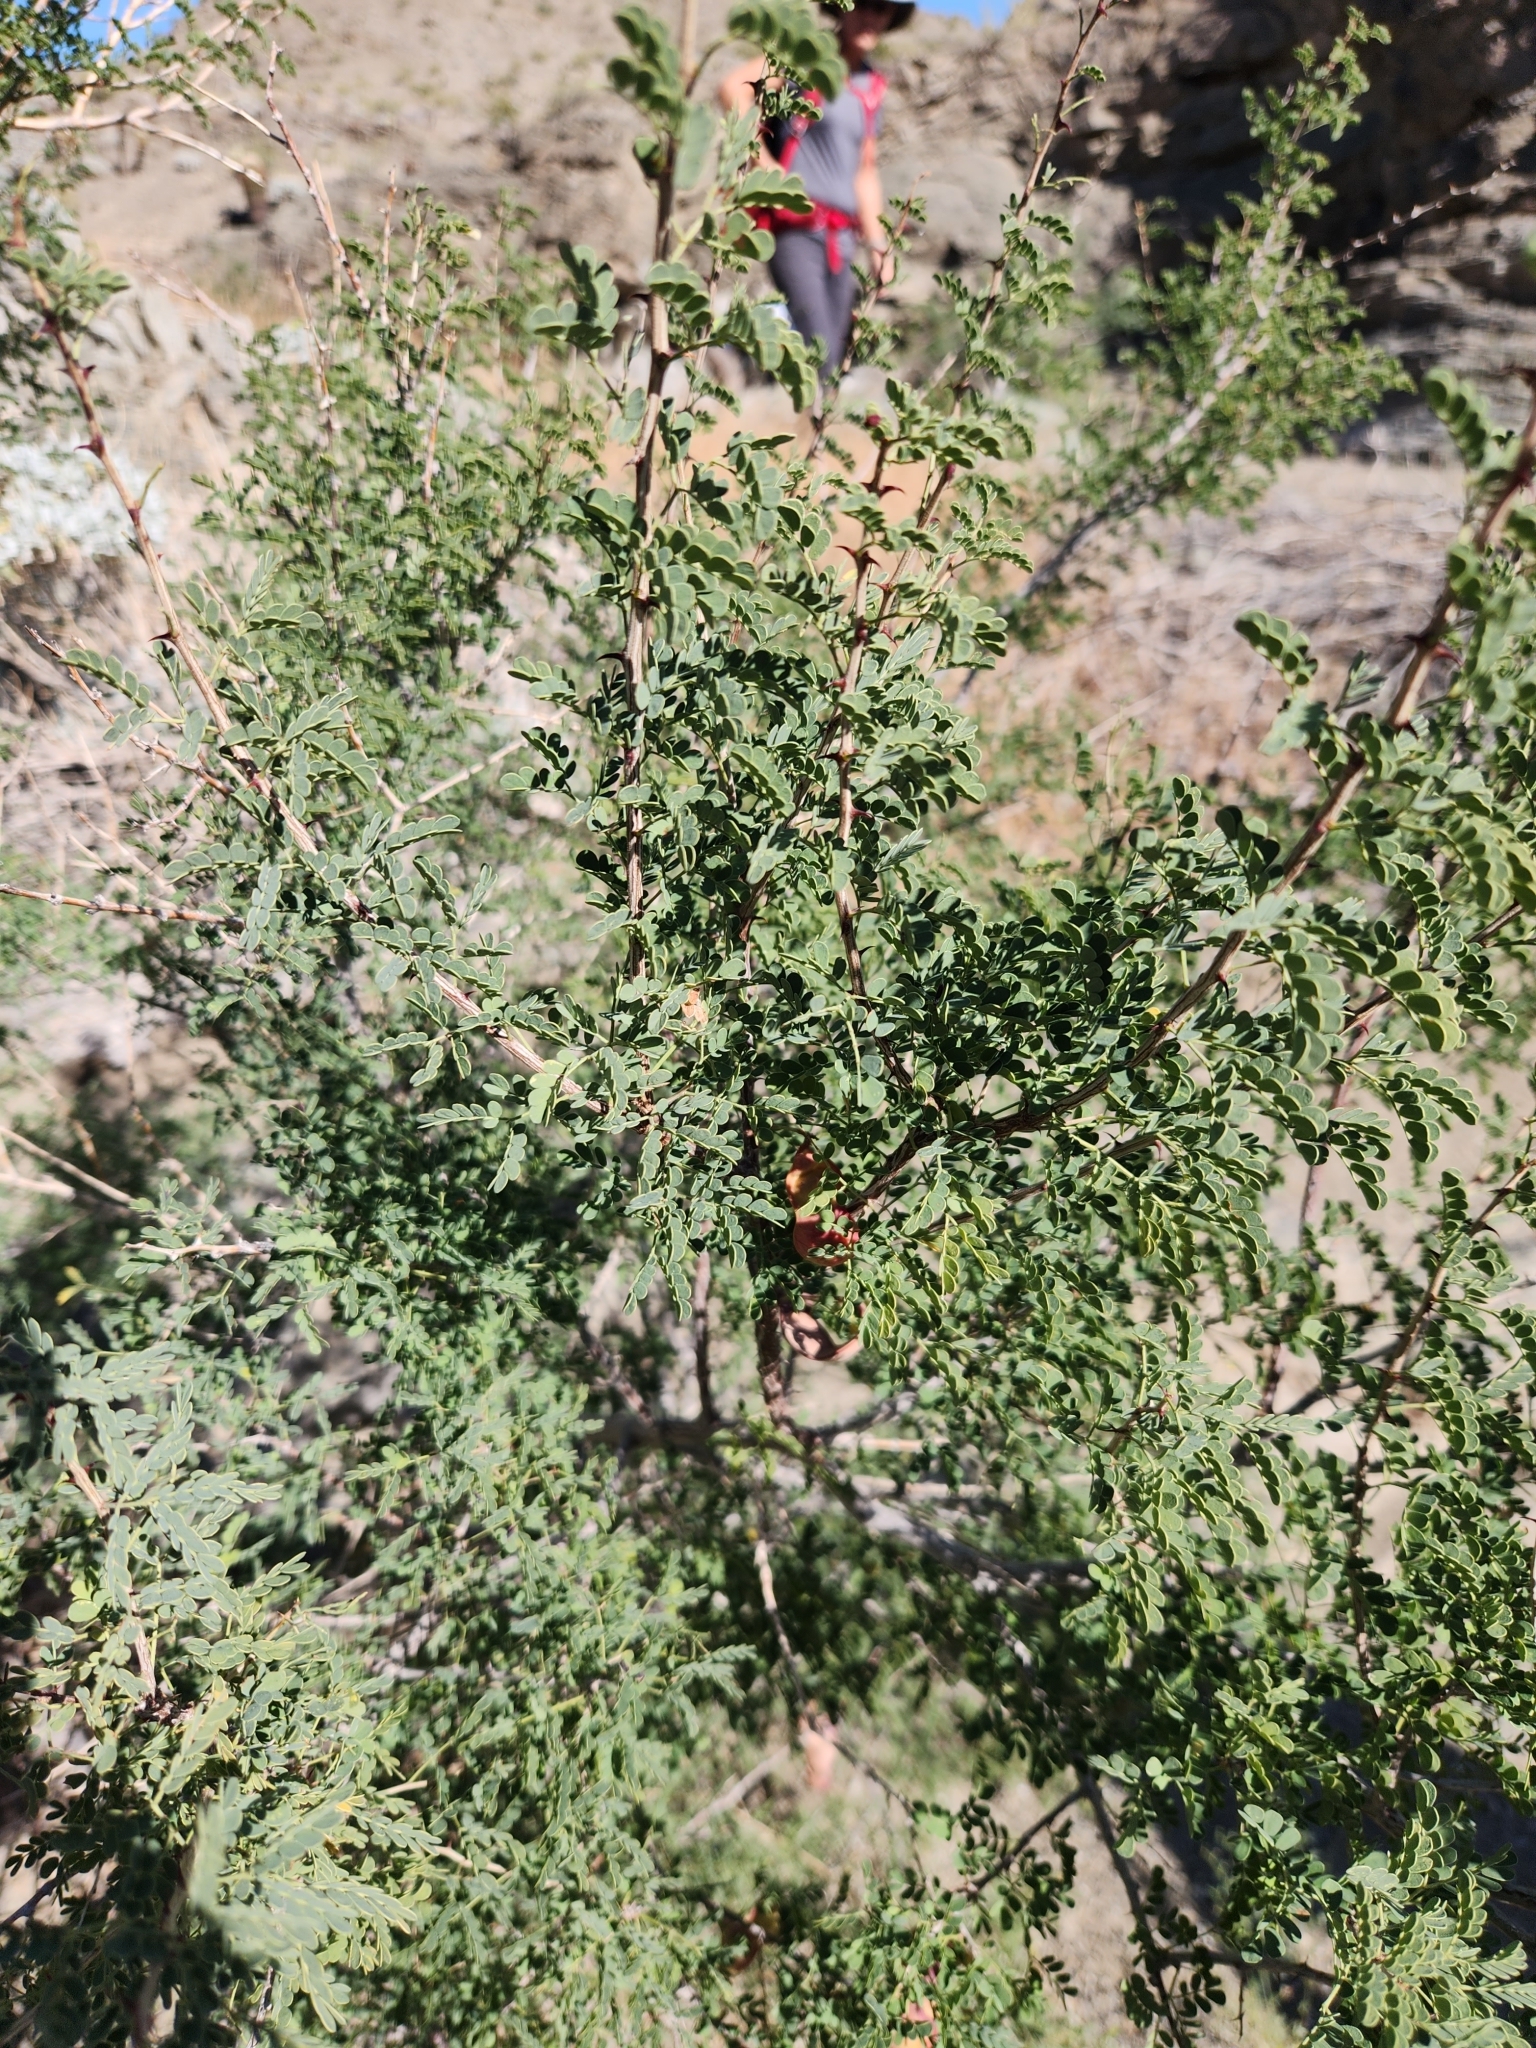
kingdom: Plantae
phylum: Tracheophyta
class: Magnoliopsida
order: Fabales
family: Fabaceae
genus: Senegalia
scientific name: Senegalia greggii
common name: Texas-mimosa
